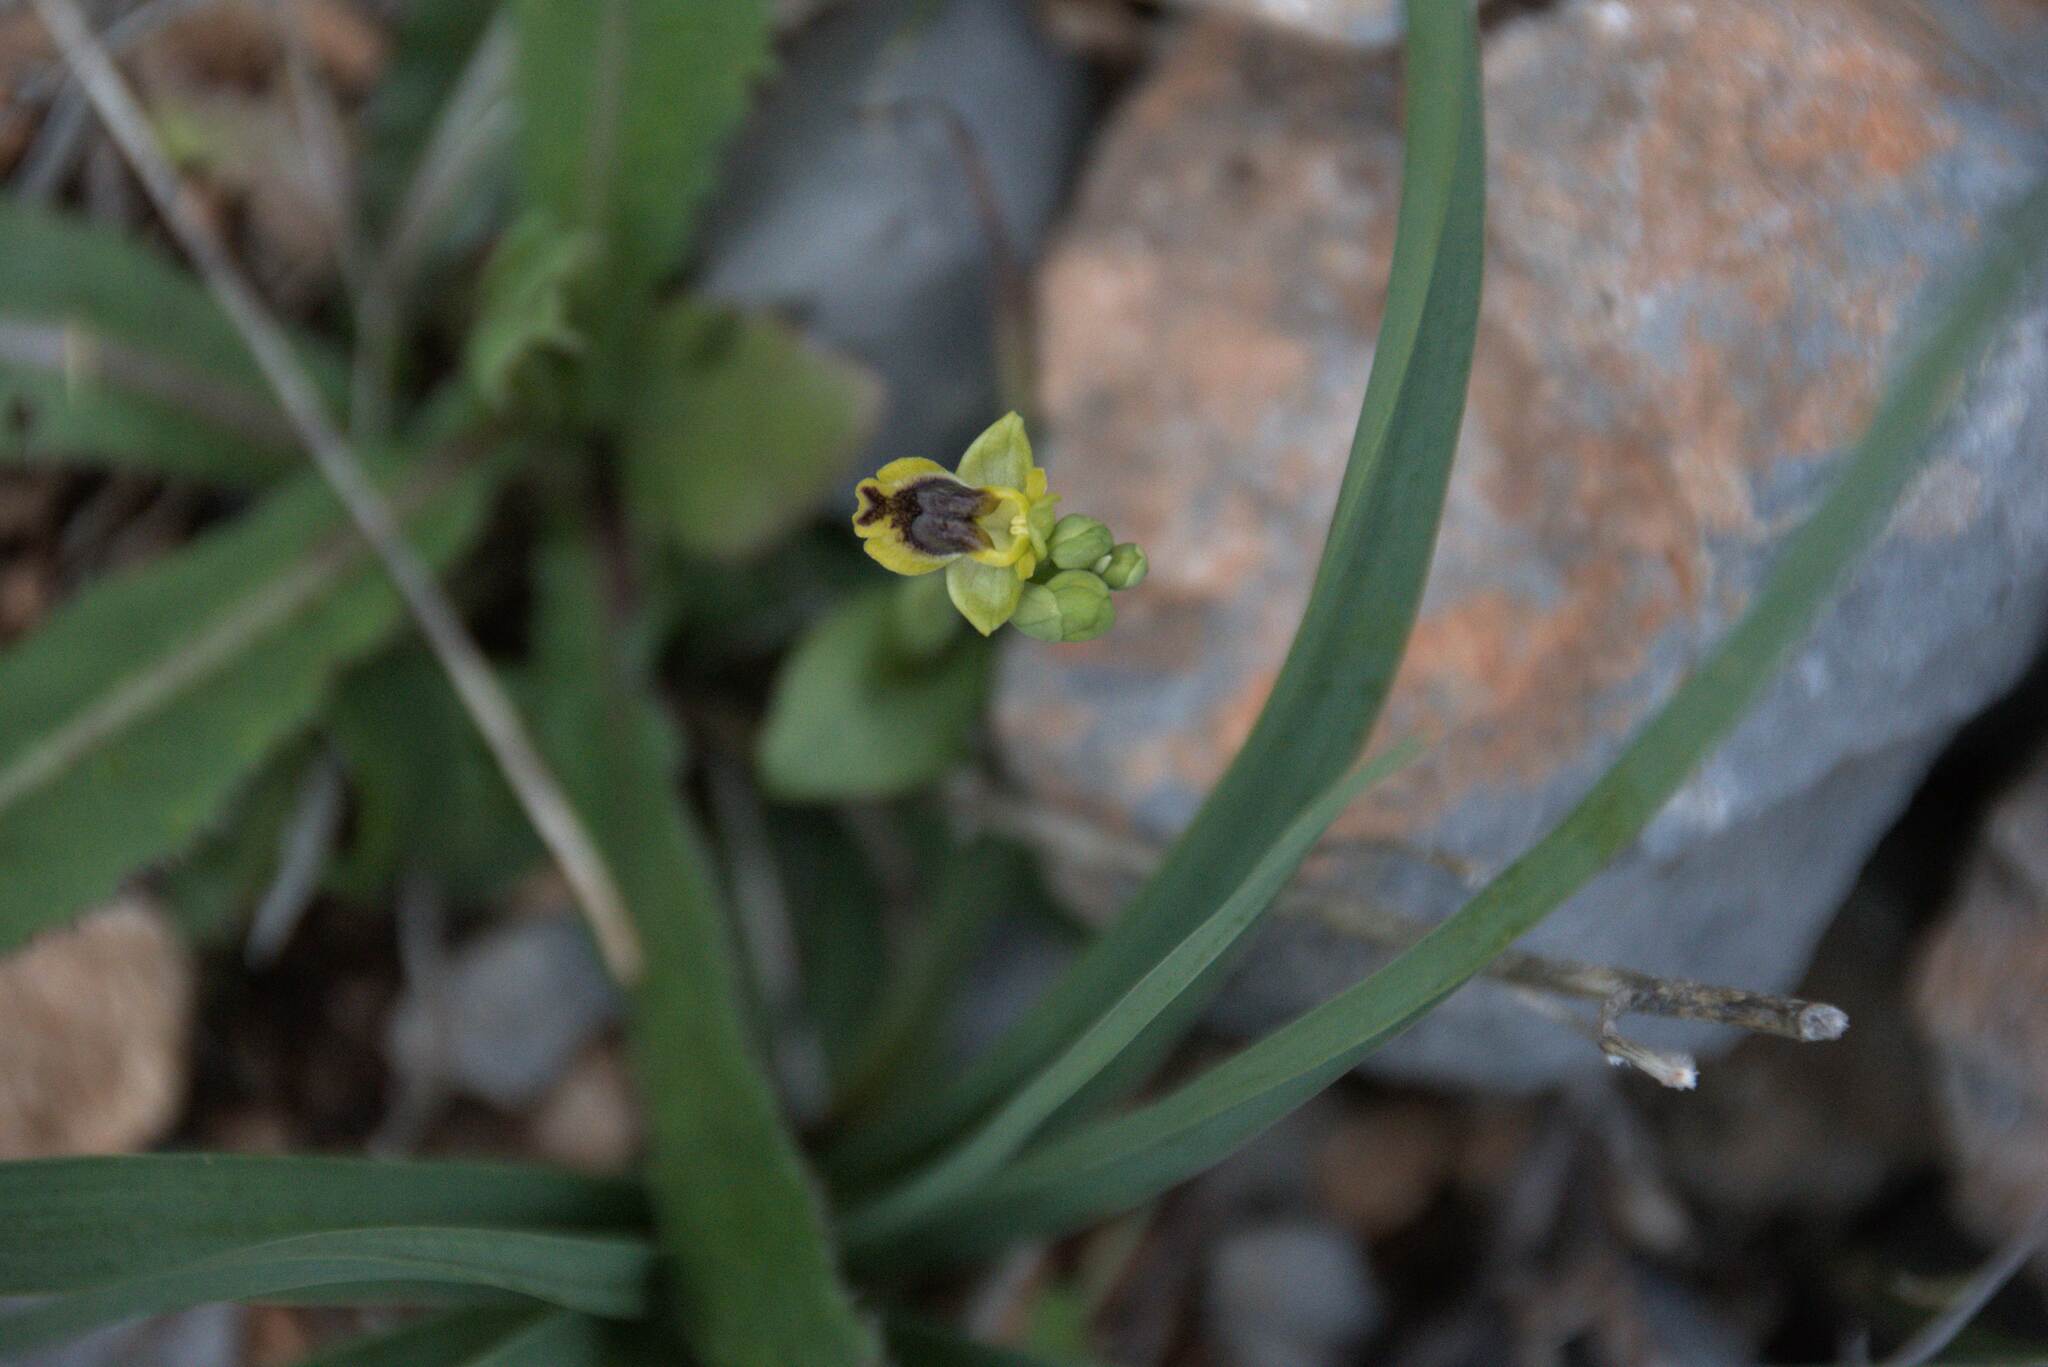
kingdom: Plantae
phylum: Tracheophyta
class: Liliopsida
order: Asparagales
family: Orchidaceae
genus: Ophrys
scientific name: Ophrys lutea
